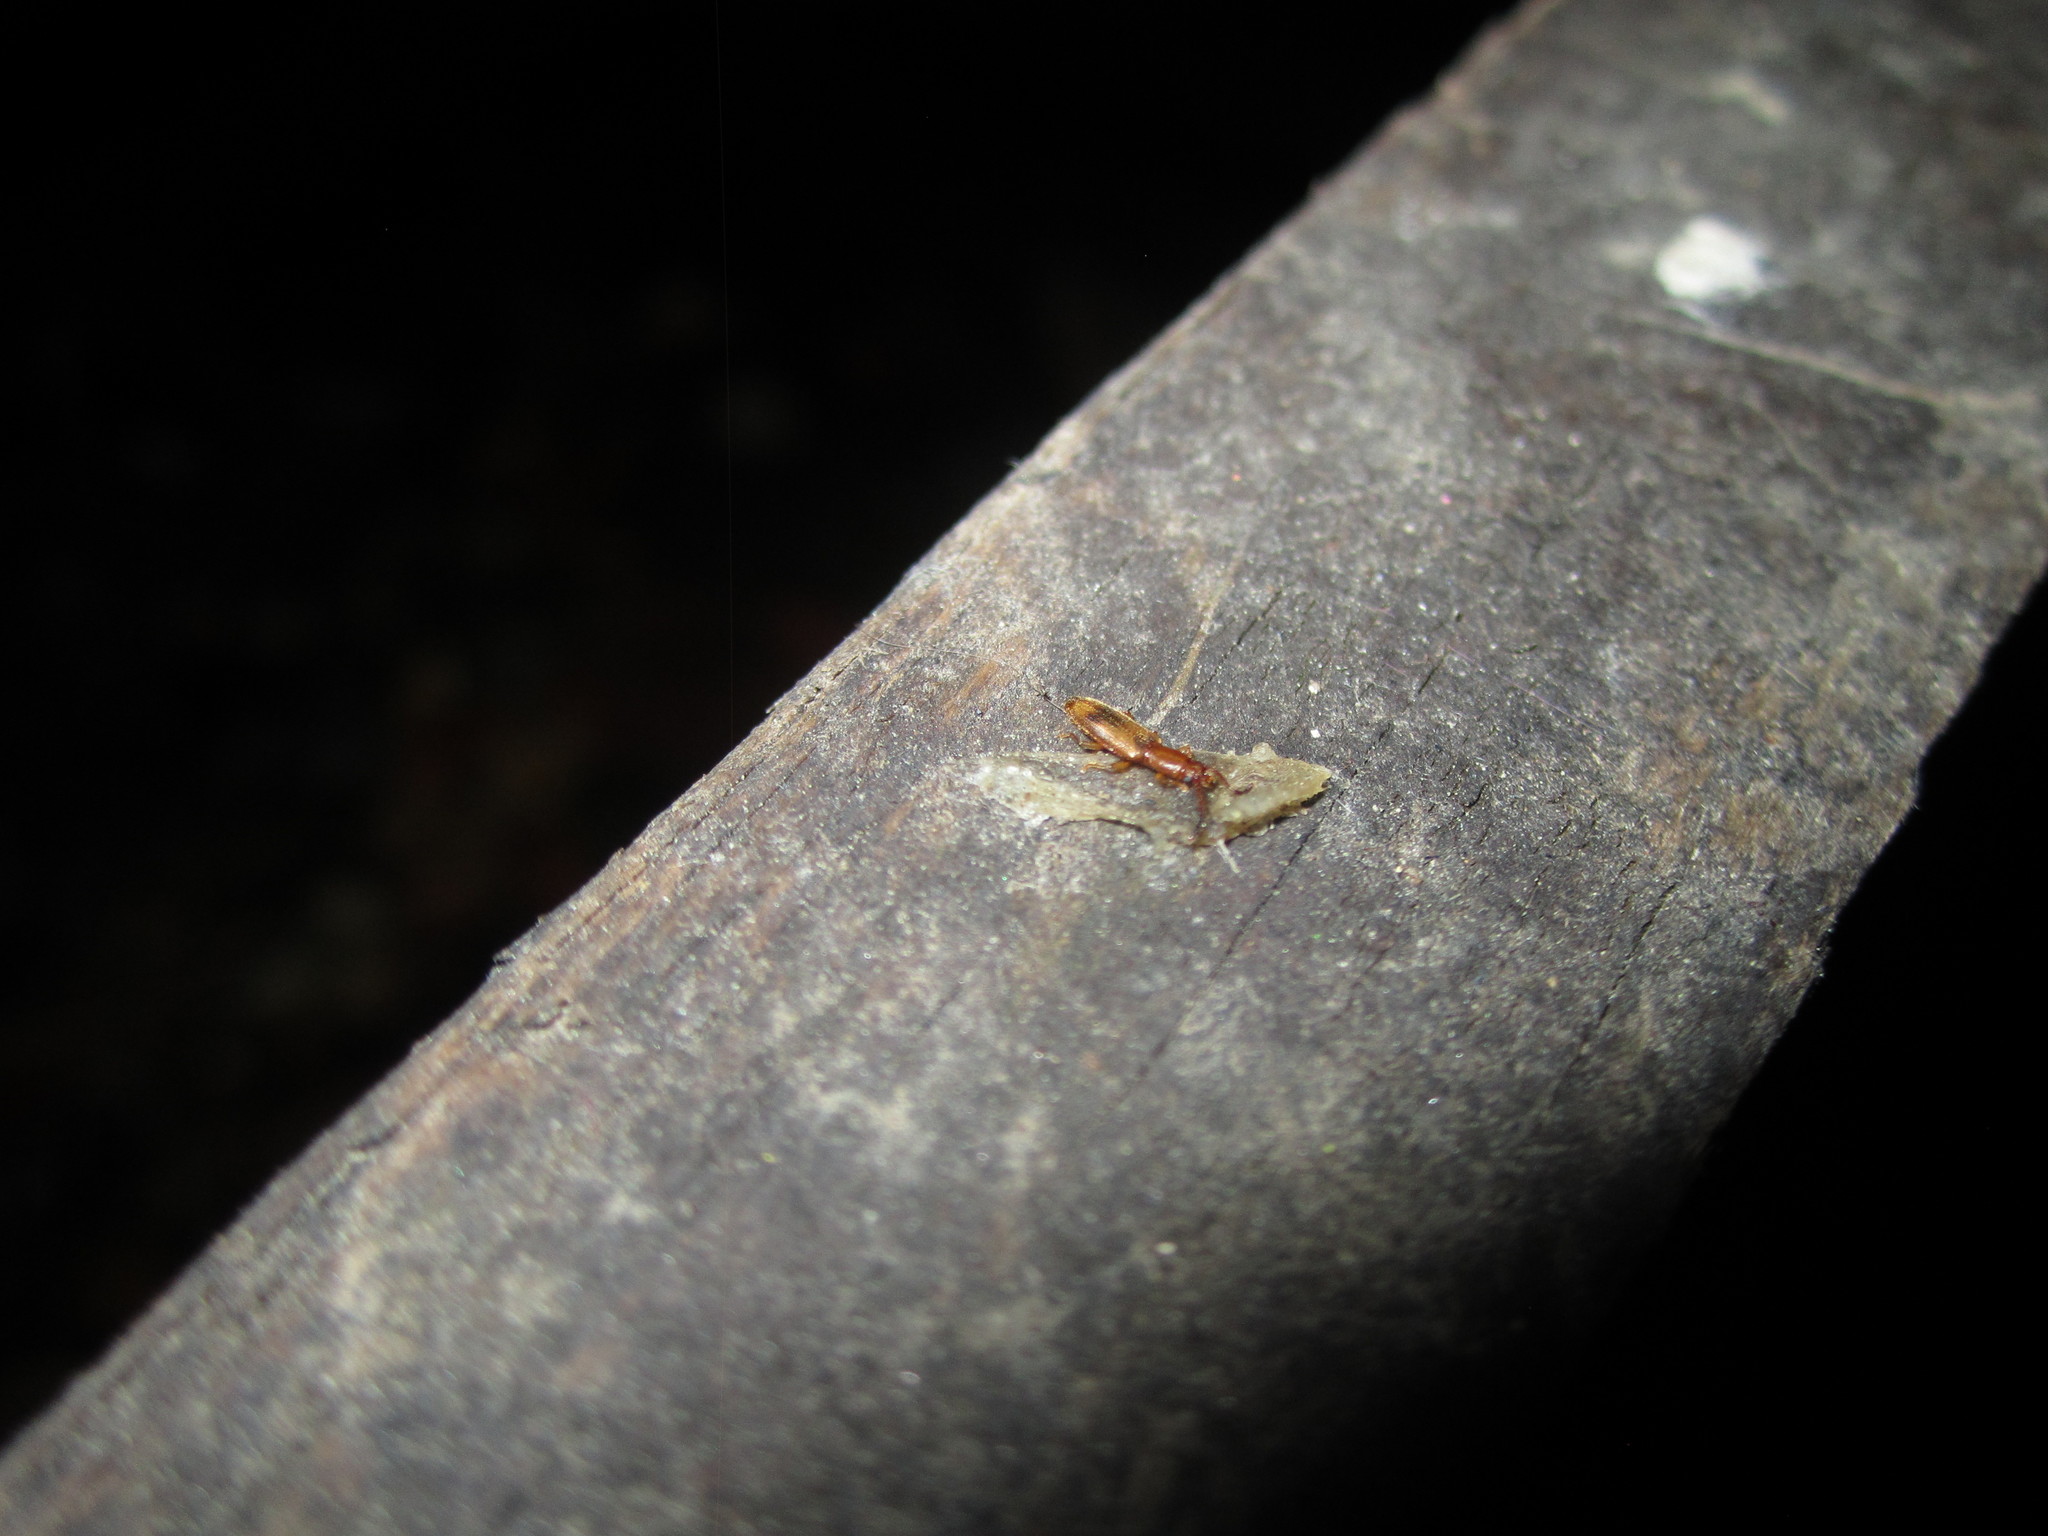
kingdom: Animalia
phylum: Arthropoda
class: Insecta
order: Coleoptera
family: Silvanidae
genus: Cryptamorpha
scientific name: Cryptamorpha desjardinsi
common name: Cryptamorpha
